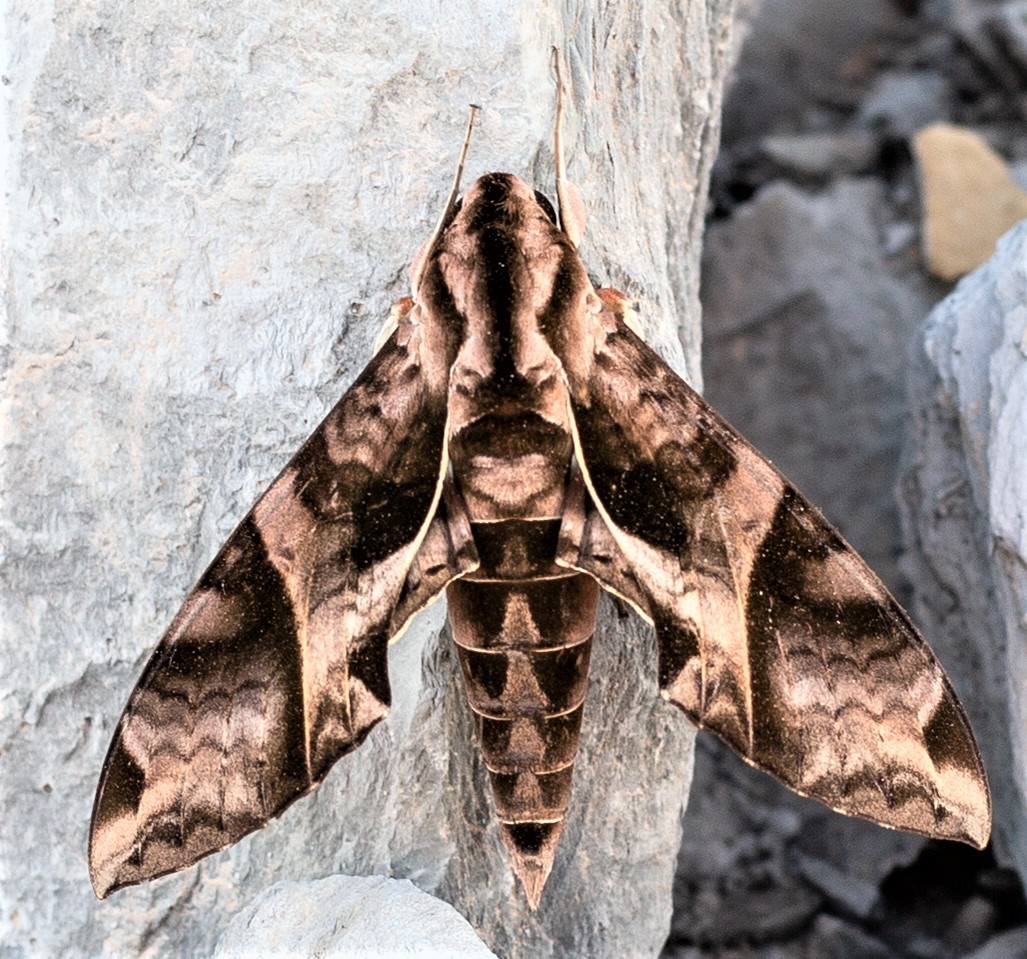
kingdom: Animalia
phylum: Arthropoda
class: Insecta
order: Lepidoptera
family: Sphingidae
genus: Eumorpha
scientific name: Eumorpha anchemolus
